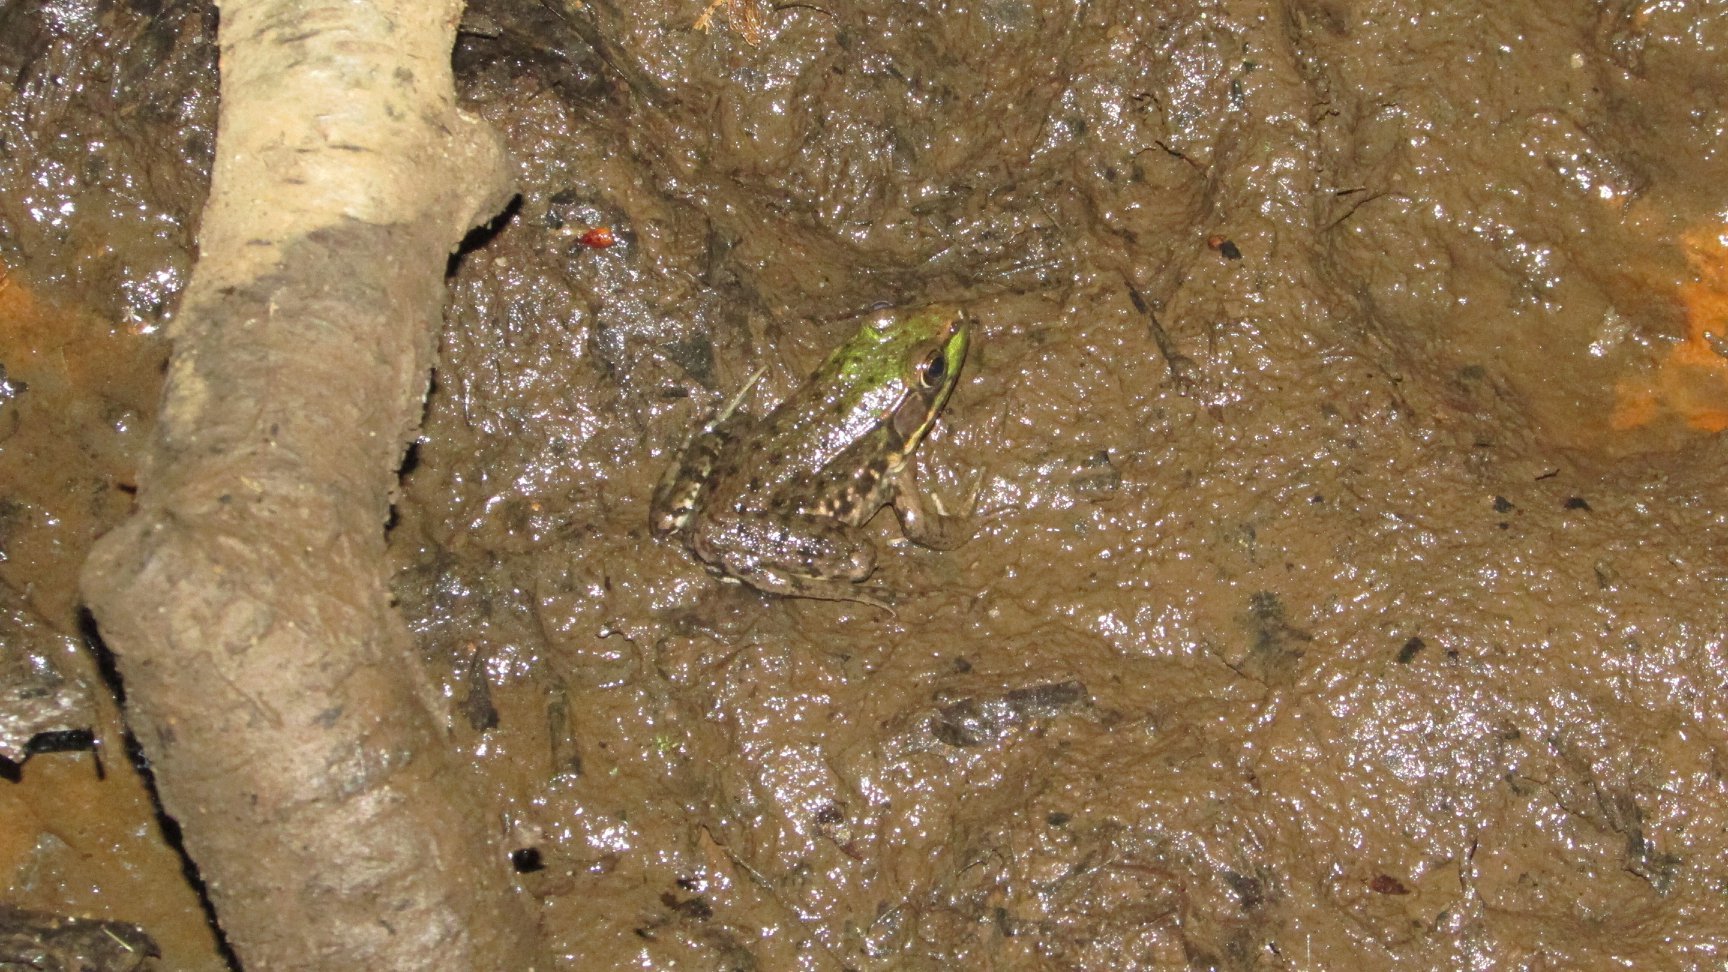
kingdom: Animalia
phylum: Chordata
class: Amphibia
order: Anura
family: Ranidae
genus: Lithobates
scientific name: Lithobates clamitans
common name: Green frog
